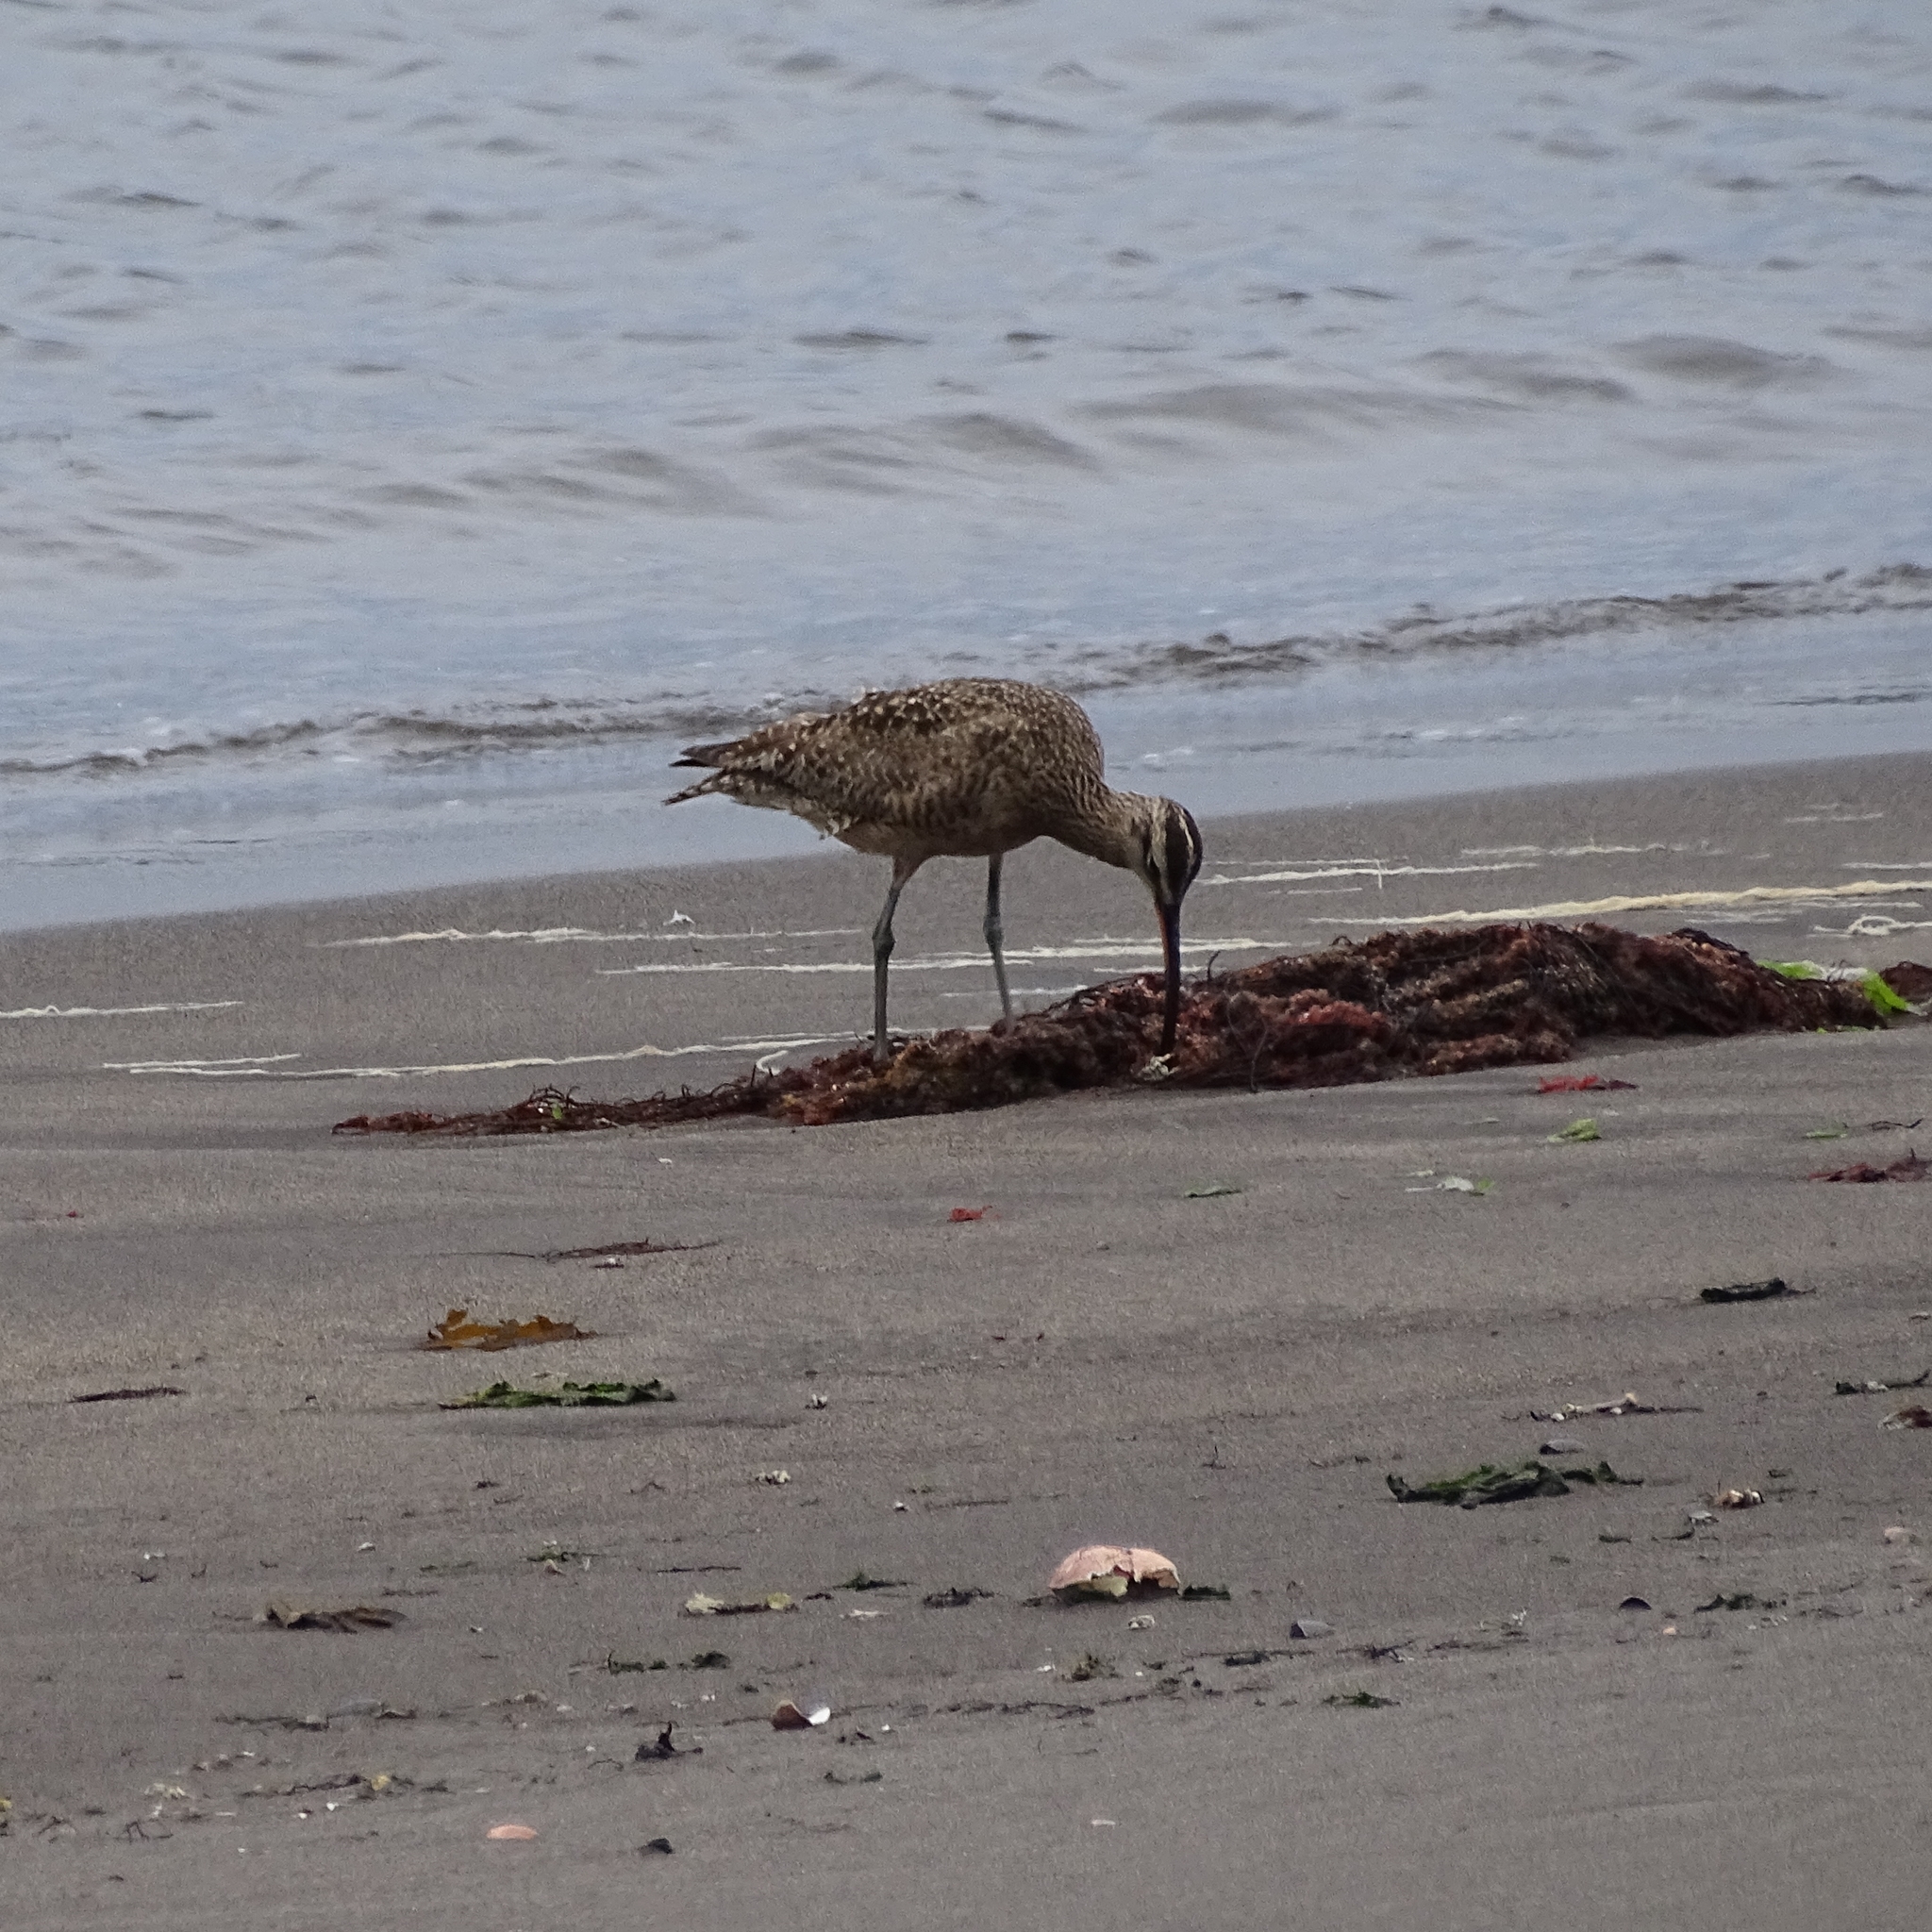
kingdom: Animalia
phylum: Chordata
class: Aves
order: Charadriiformes
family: Scolopacidae
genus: Numenius
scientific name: Numenius phaeopus
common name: Whimbrel
